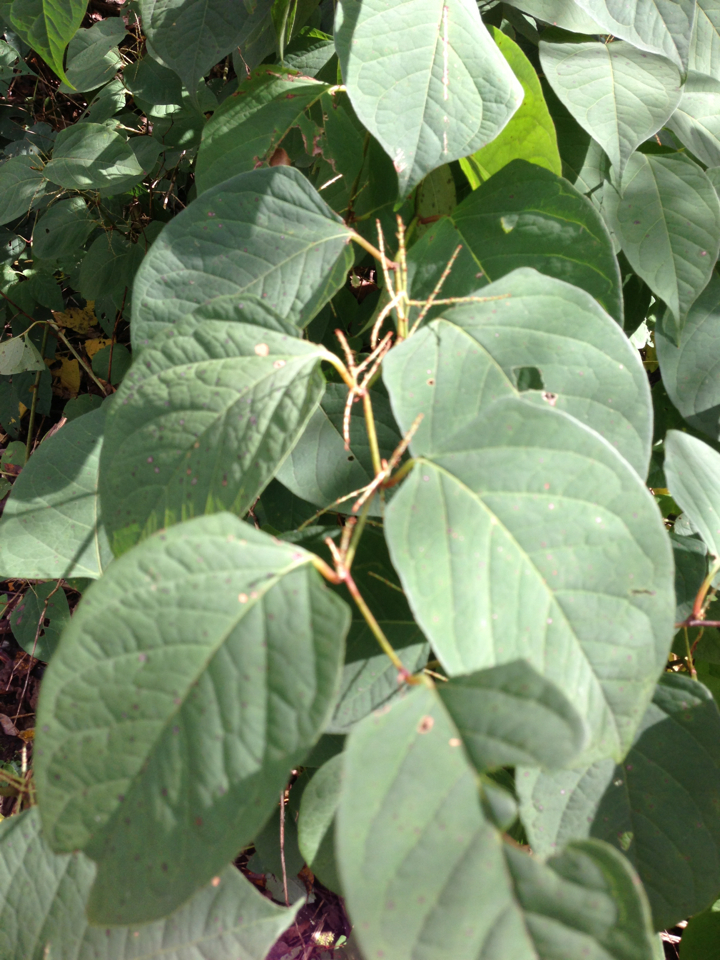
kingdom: Plantae
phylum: Tracheophyta
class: Magnoliopsida
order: Caryophyllales
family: Polygonaceae
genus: Reynoutria
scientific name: Reynoutria japonica
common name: Japanese knotweed
